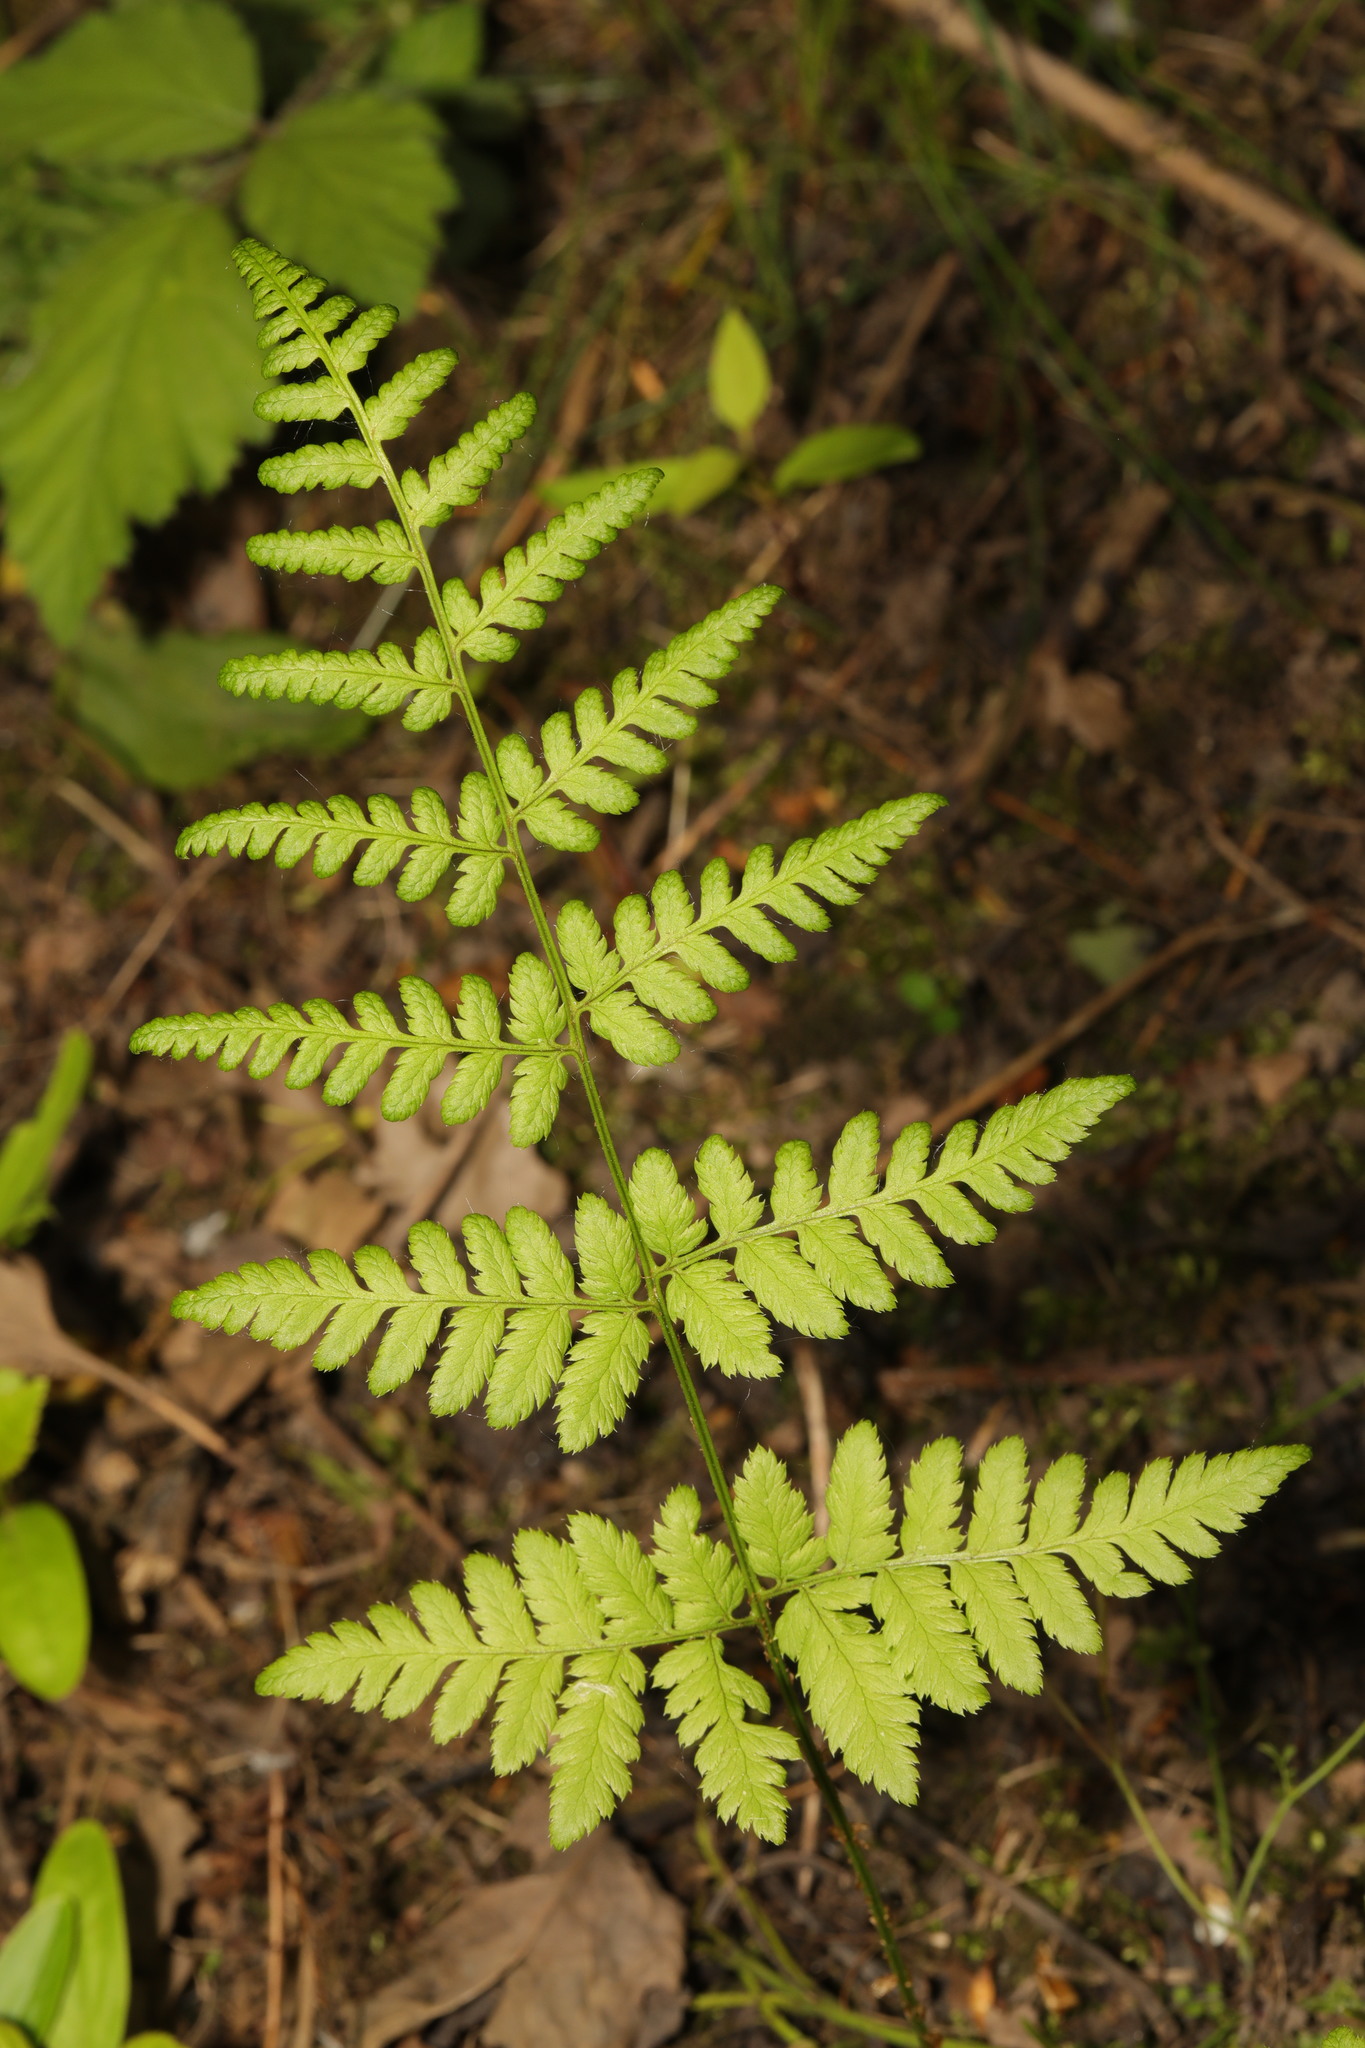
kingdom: Plantae
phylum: Tracheophyta
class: Polypodiopsida
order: Polypodiales
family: Dryopteridaceae
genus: Dryopteris
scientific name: Dryopteris dilatata
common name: Broad buckler-fern
